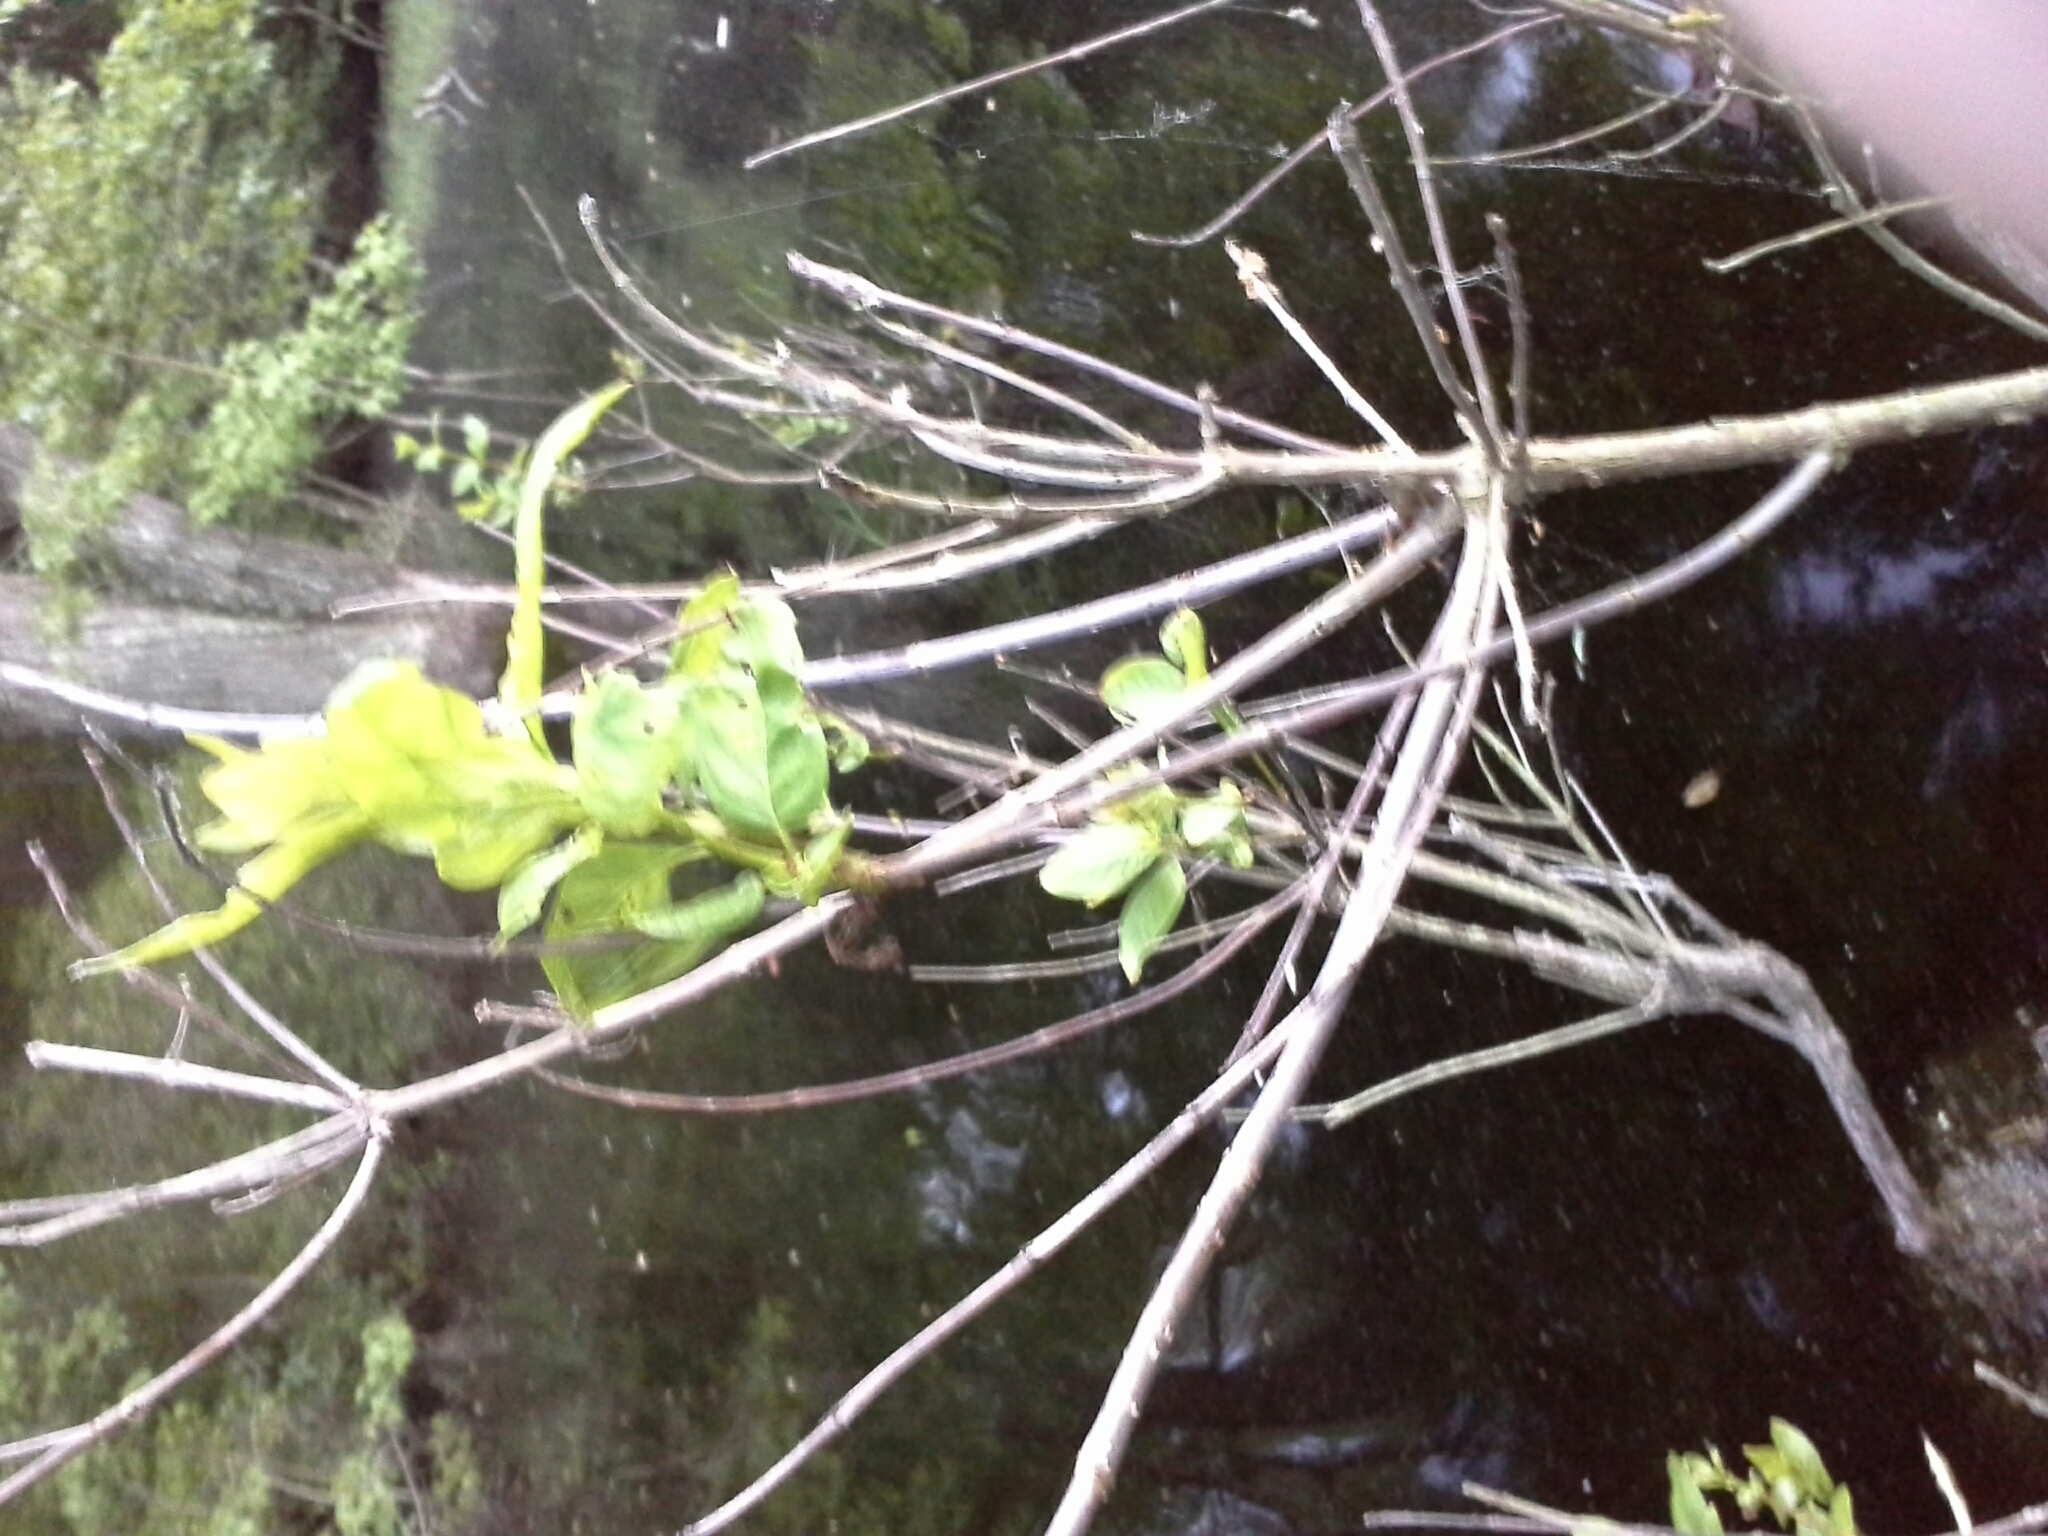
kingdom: Plantae
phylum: Tracheophyta
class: Magnoliopsida
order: Gentianales
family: Rubiaceae
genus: Cephalanthus
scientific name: Cephalanthus occidentalis
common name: Button-willow
